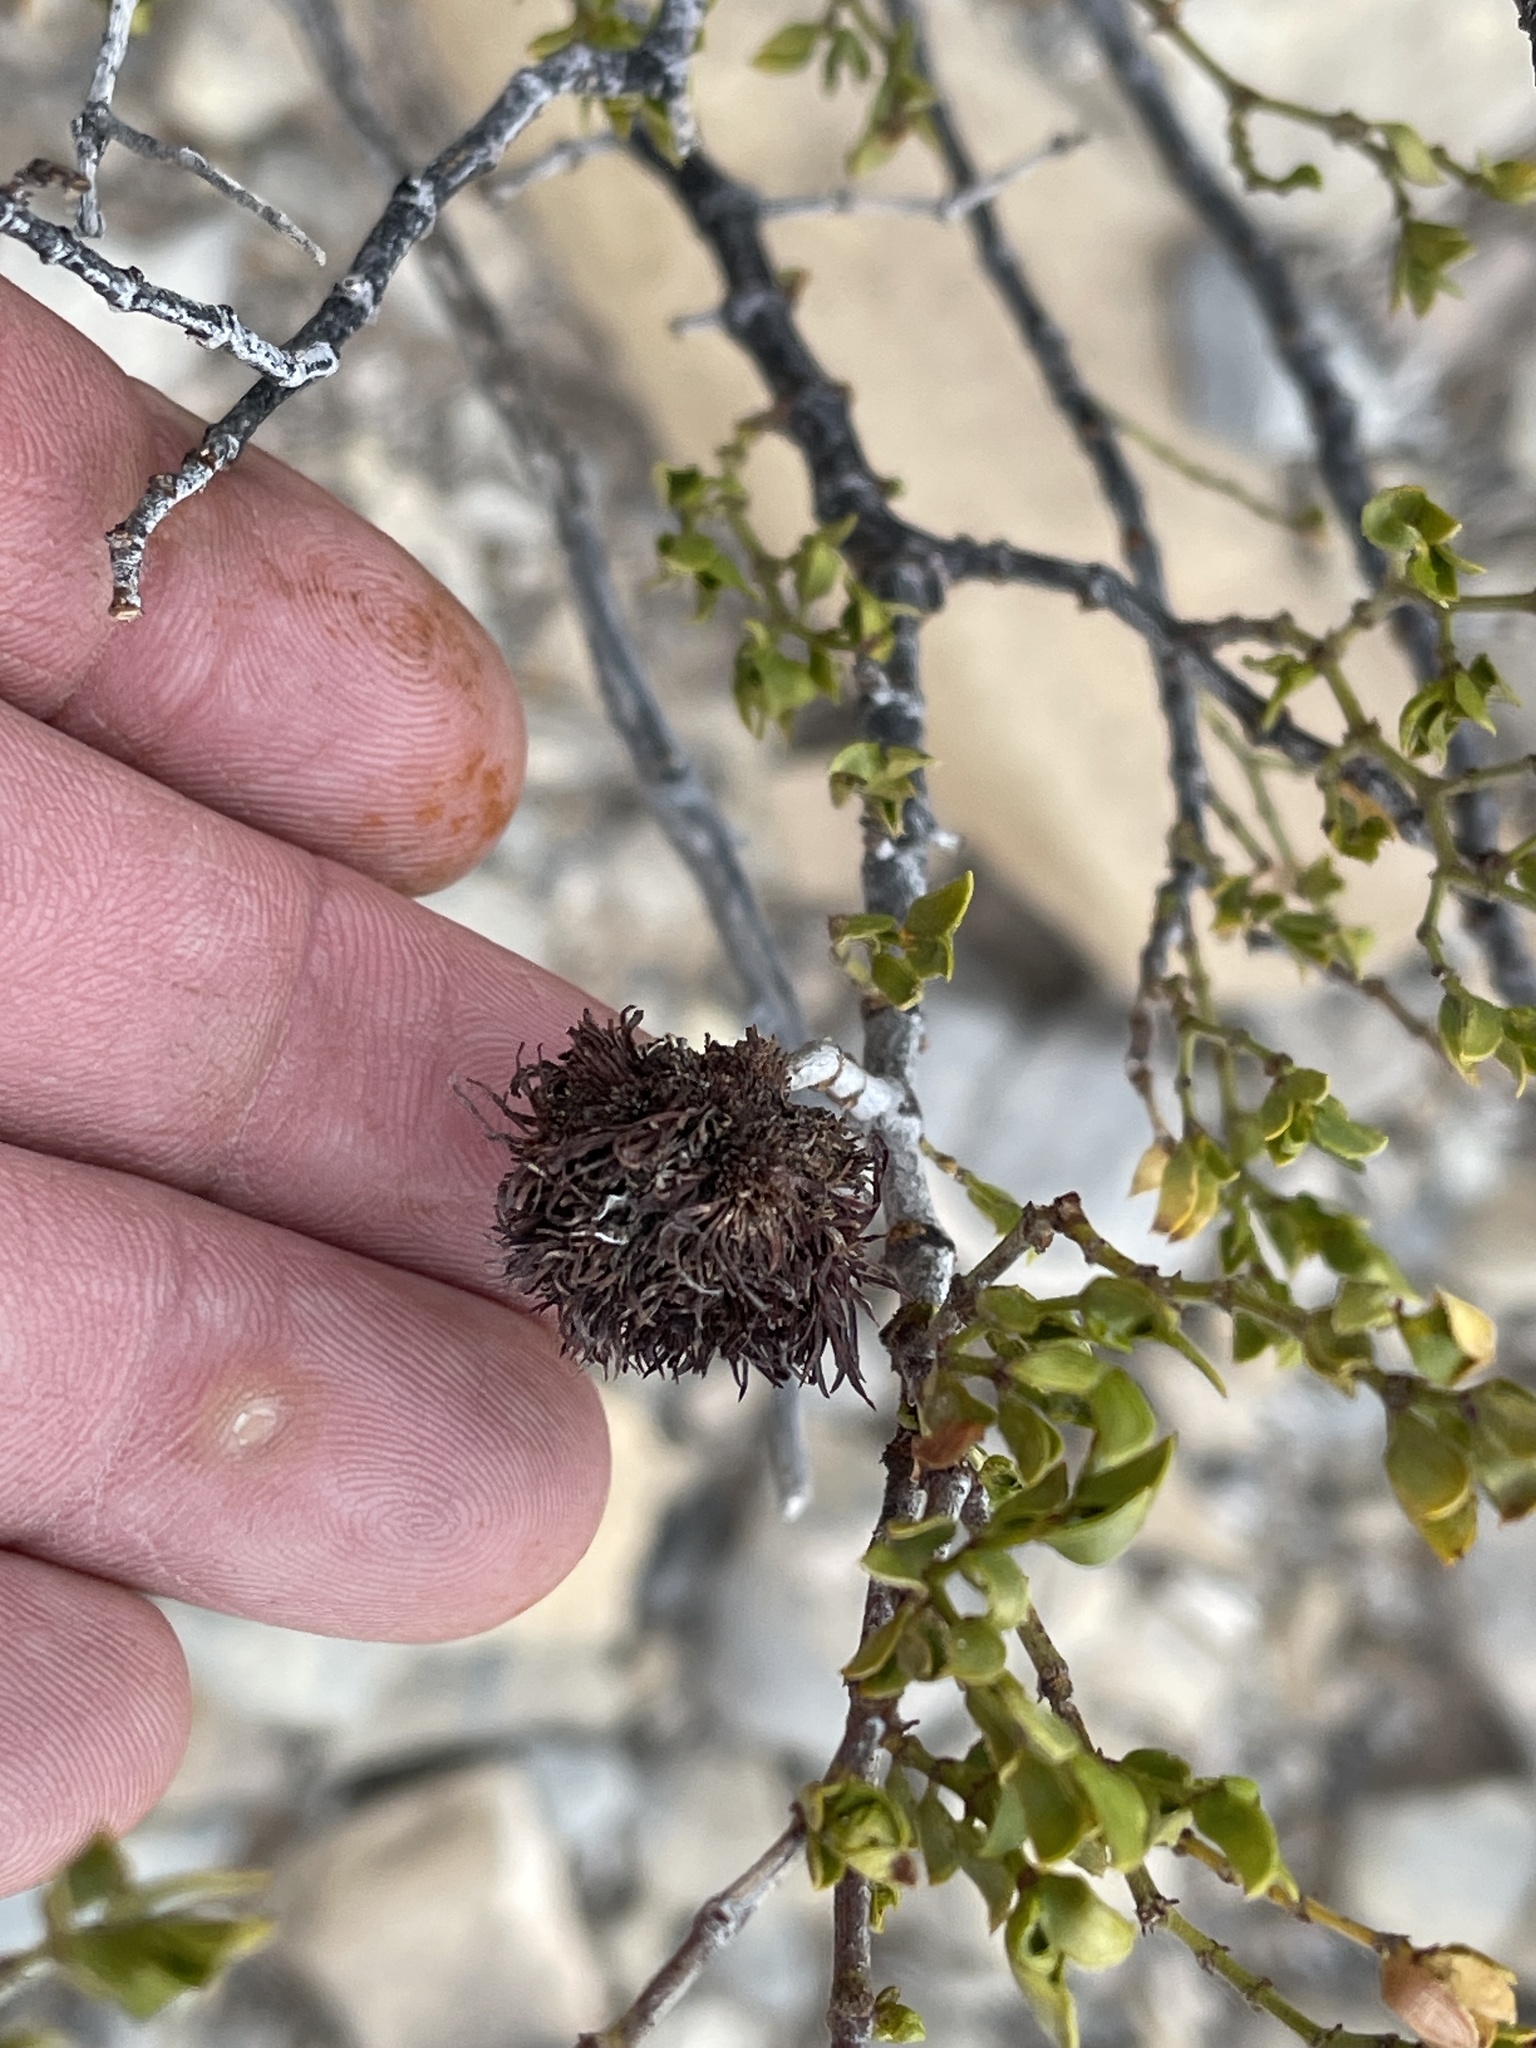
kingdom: Animalia
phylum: Arthropoda
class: Insecta
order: Diptera
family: Cecidomyiidae
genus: Asphondylia
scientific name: Asphondylia auripila
